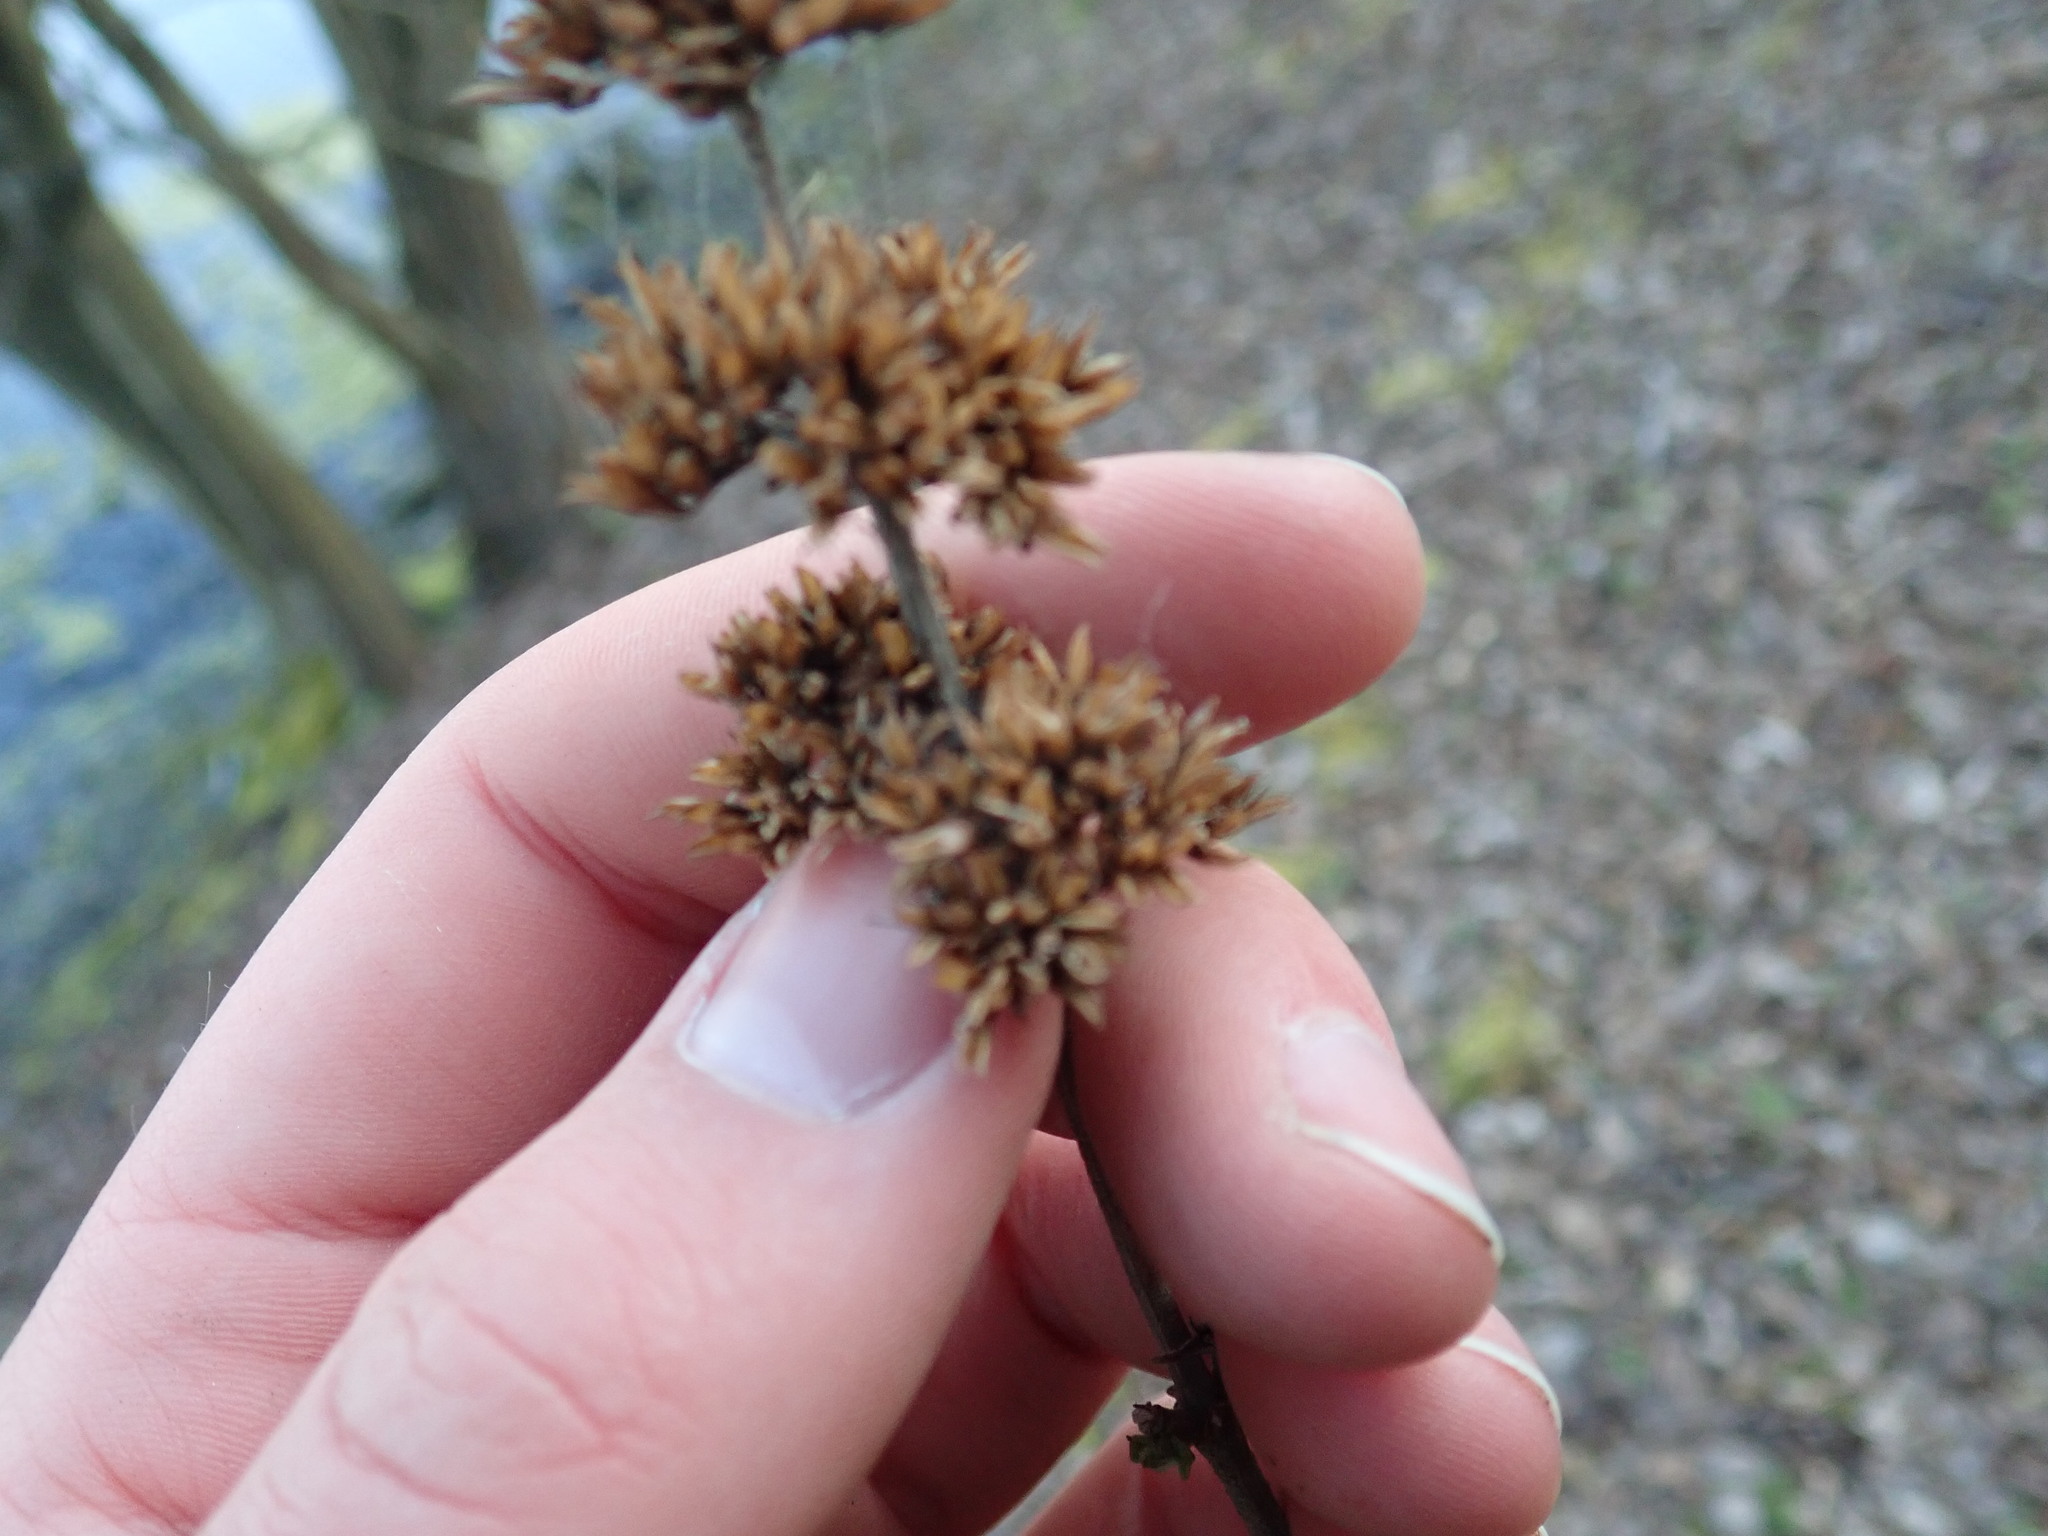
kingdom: Plantae
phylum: Tracheophyta
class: Magnoliopsida
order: Lamiales
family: Scrophulariaceae
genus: Buddleja
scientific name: Buddleja davidii
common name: Butterfly-bush
